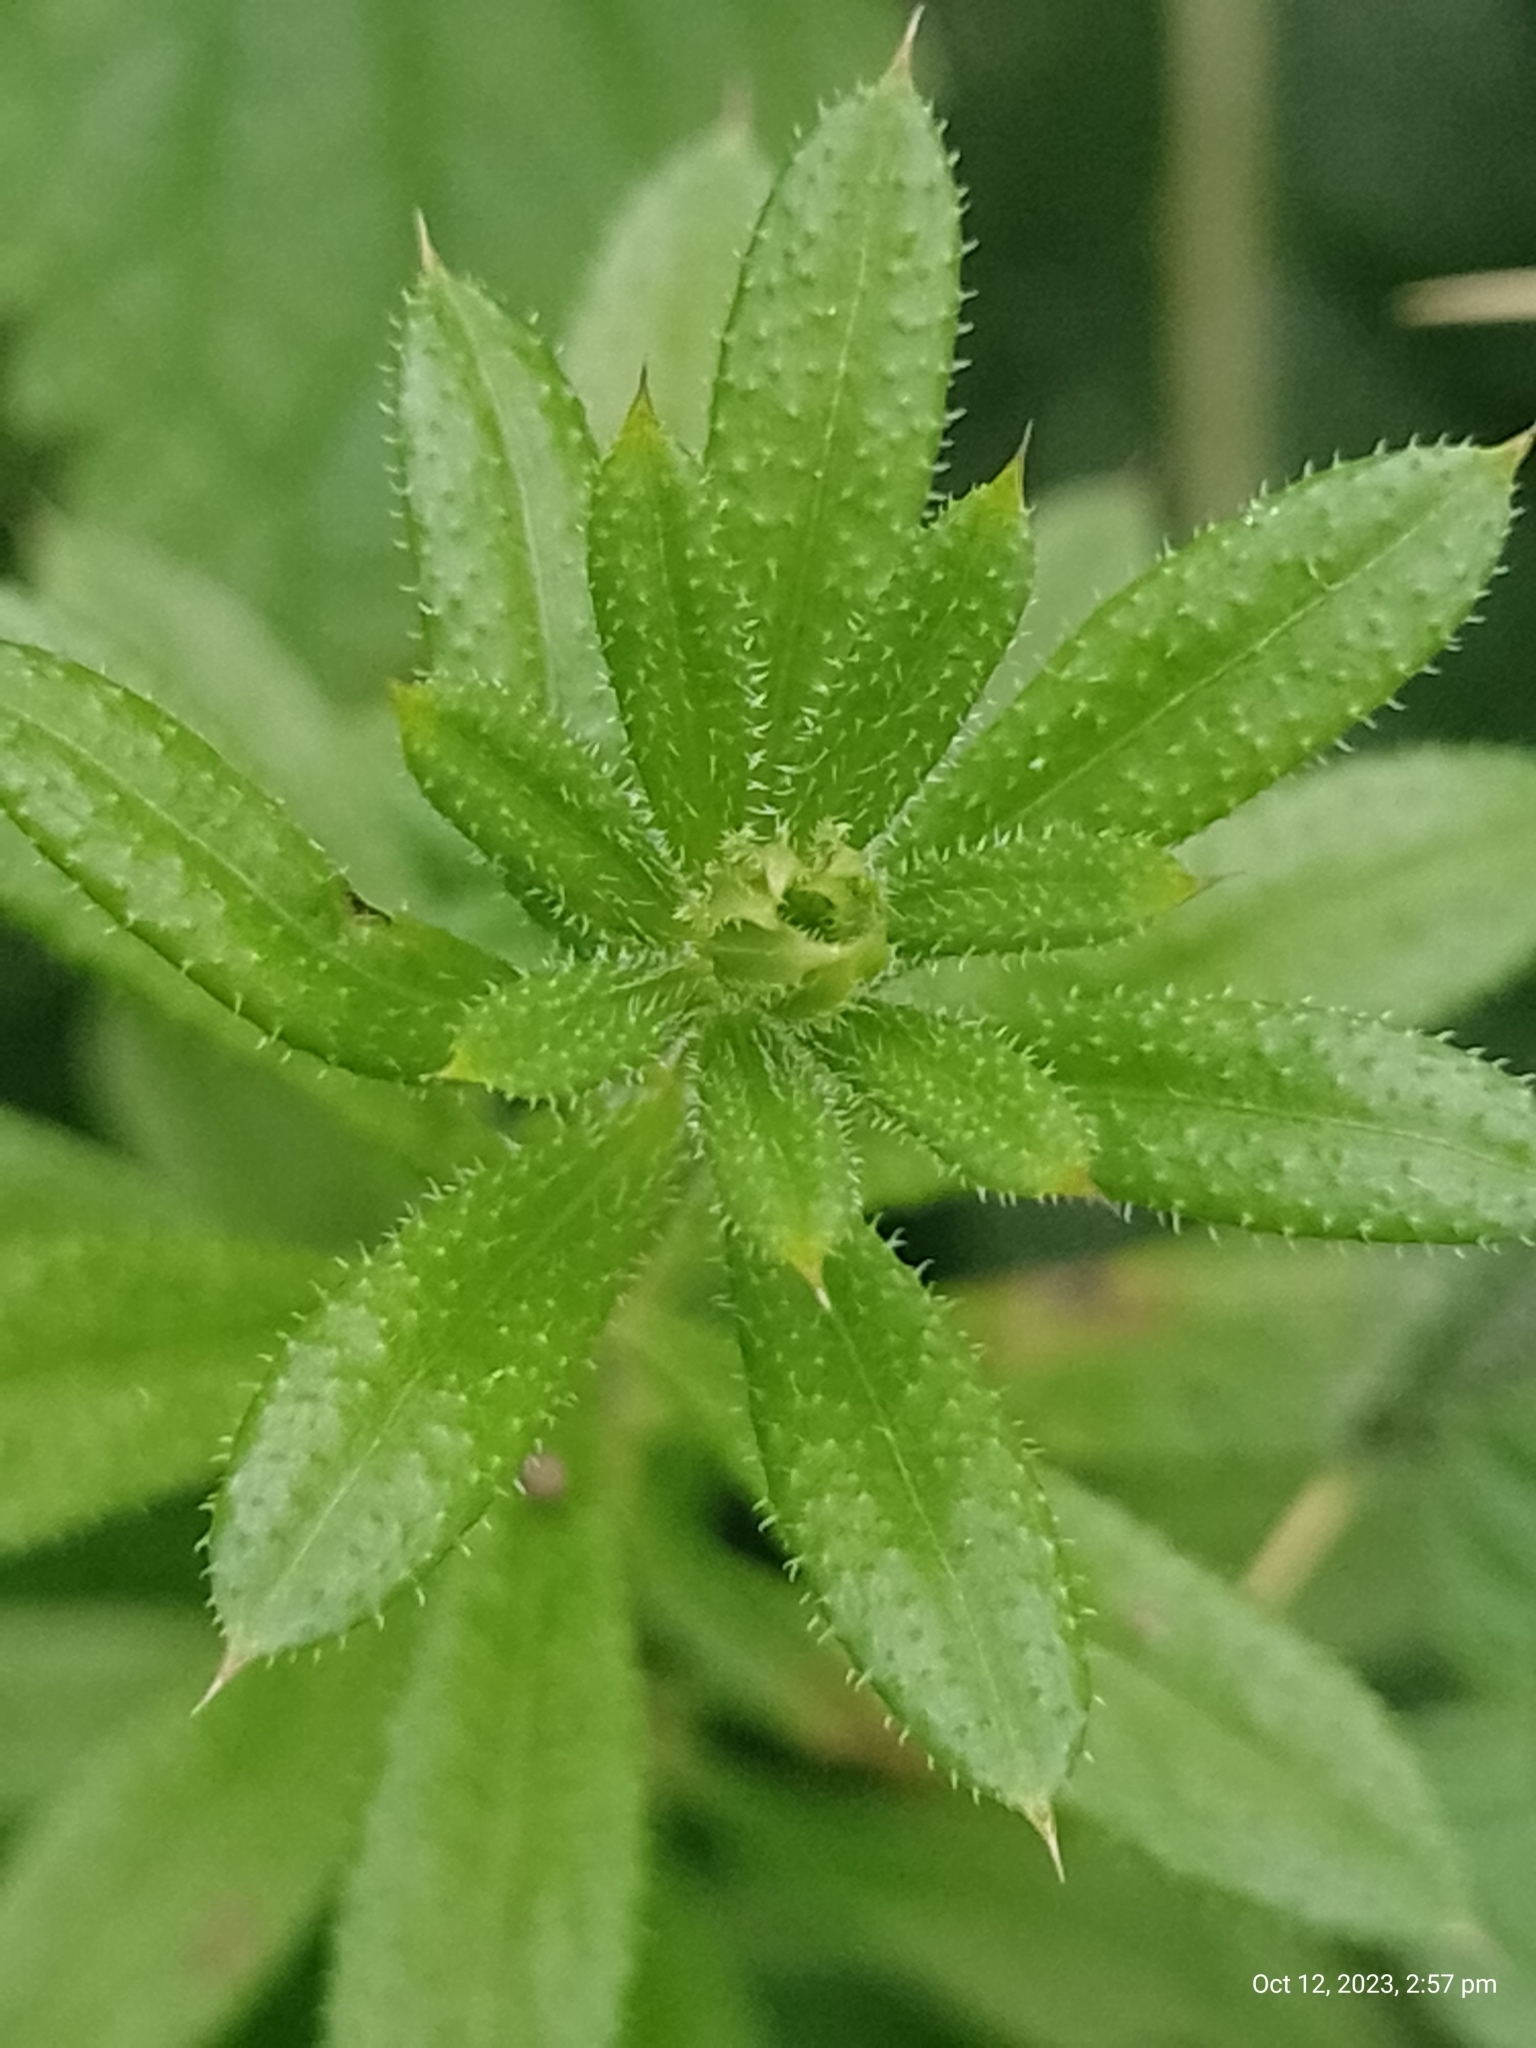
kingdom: Plantae
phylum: Tracheophyta
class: Magnoliopsida
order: Gentianales
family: Rubiaceae
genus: Galium
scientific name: Galium aparine
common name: Cleavers
